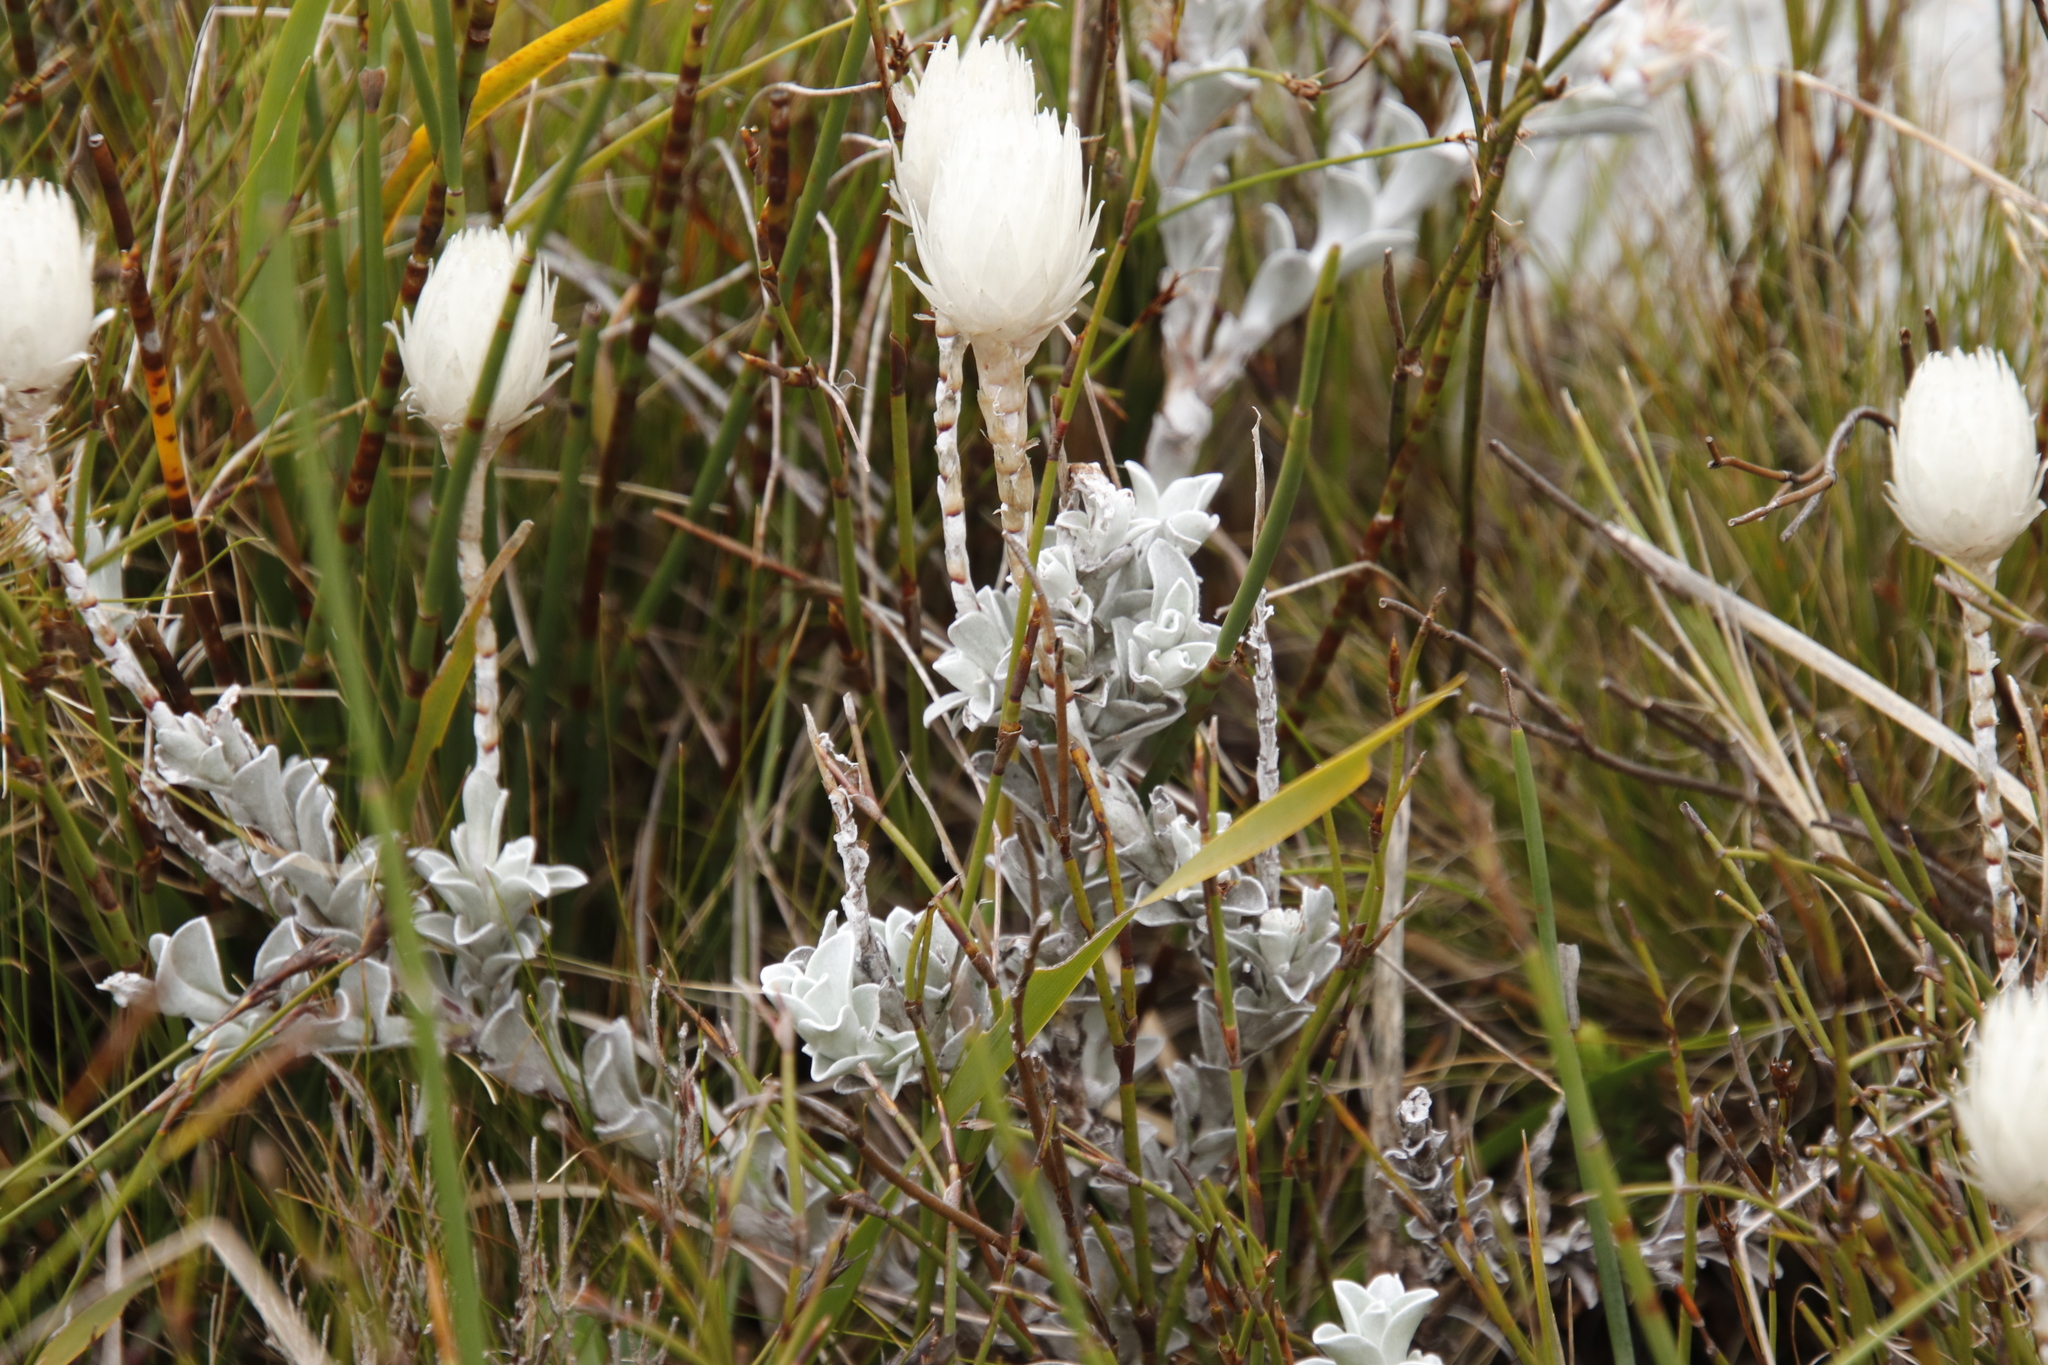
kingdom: Plantae
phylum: Tracheophyta
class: Magnoliopsida
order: Asterales
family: Asteraceae
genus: Syncarpha
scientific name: Syncarpha lepidopodium
